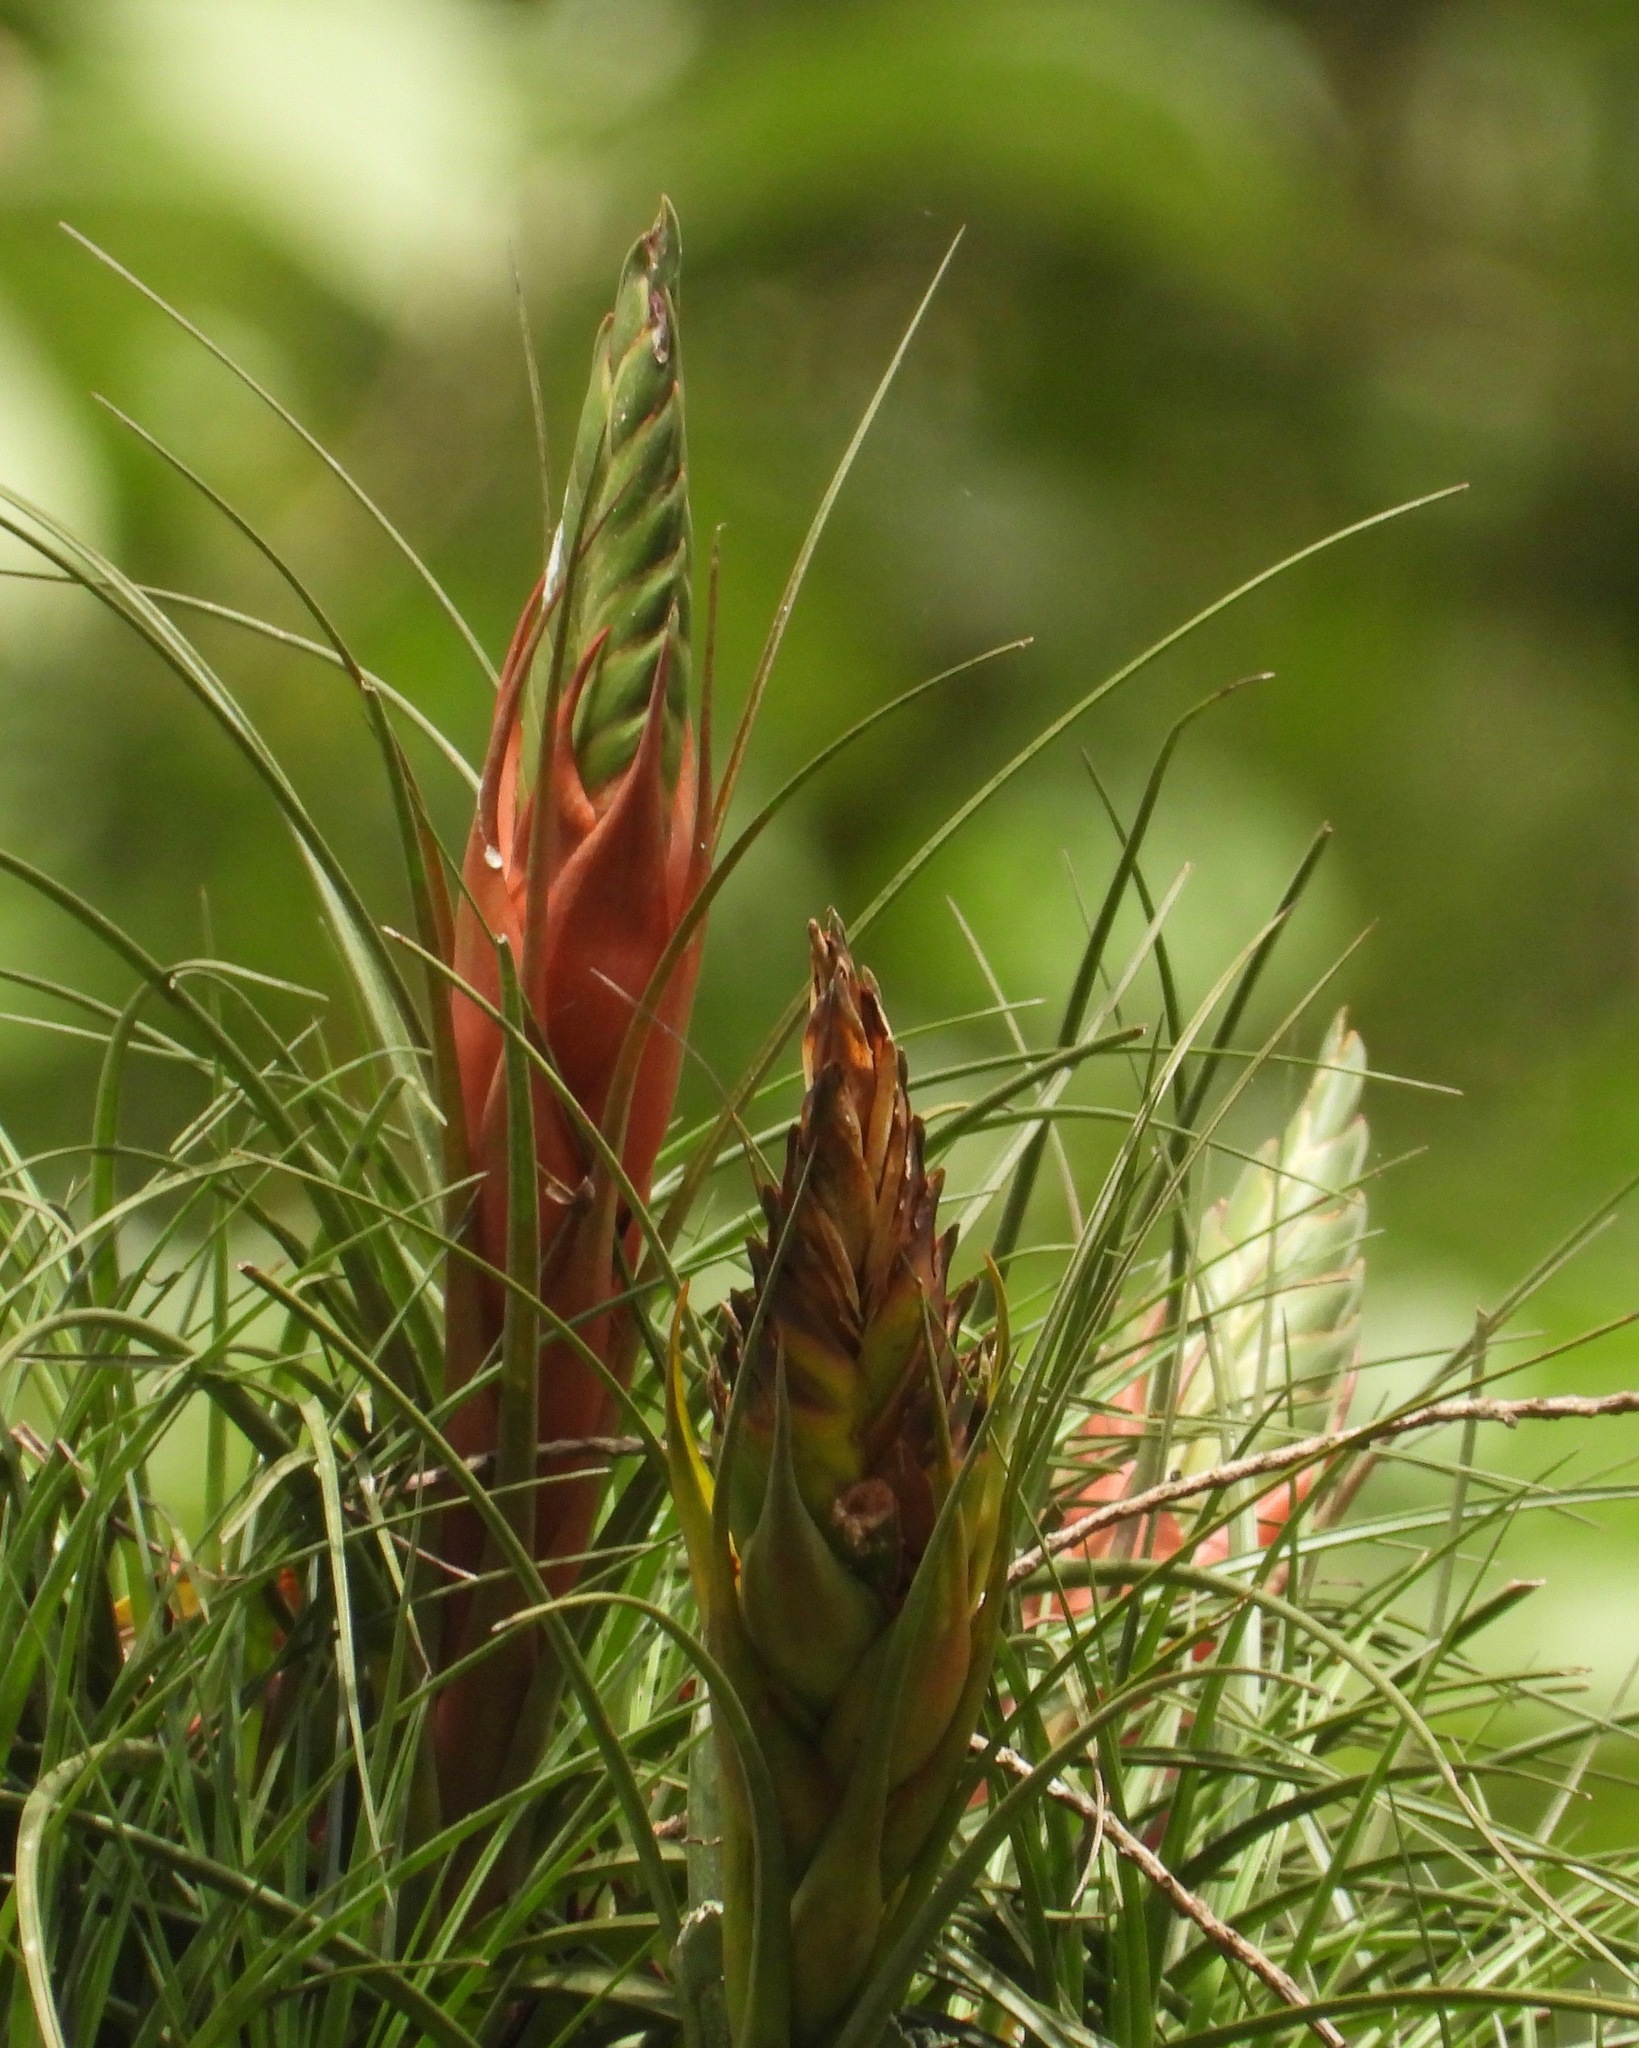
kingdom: Plantae
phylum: Tracheophyta
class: Liliopsida
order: Poales
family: Bromeliaceae
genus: Tillandsia
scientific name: Tillandsia punctulata
